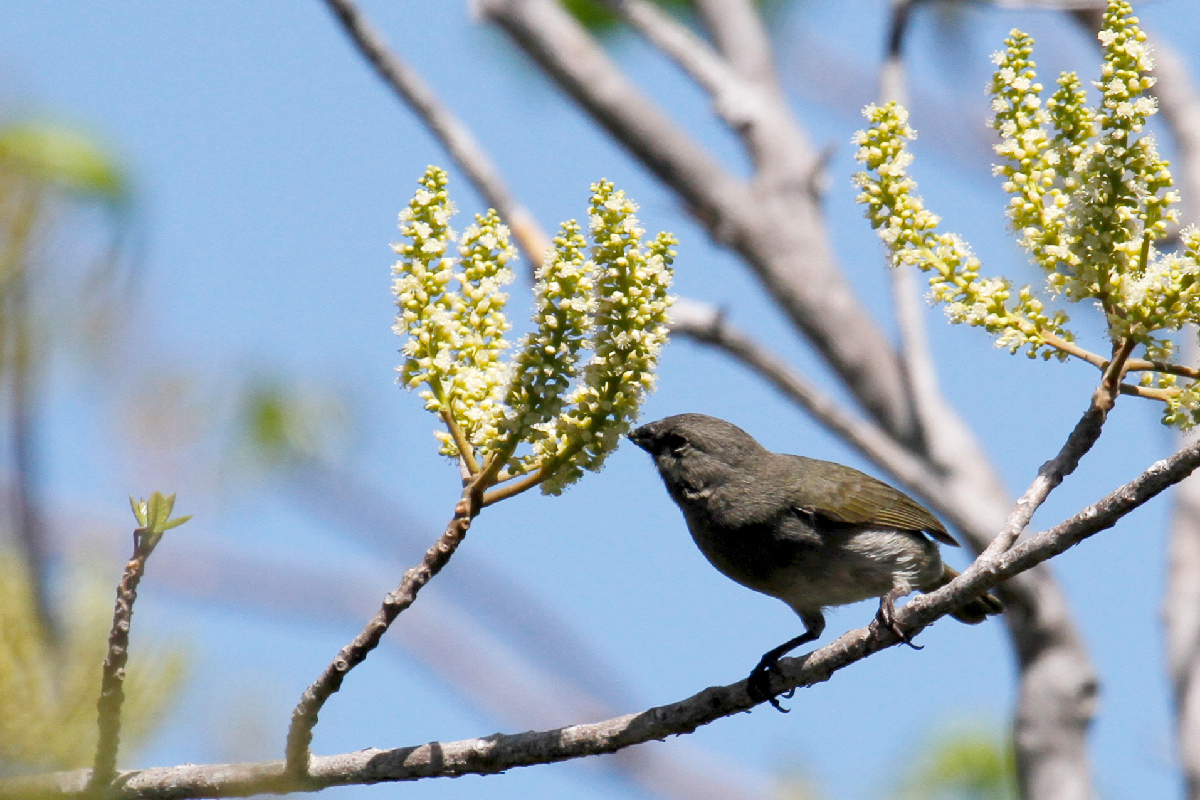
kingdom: Animalia
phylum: Chordata
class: Aves
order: Passeriformes
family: Thraupidae
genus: Melanospiza
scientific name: Melanospiza bicolor
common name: Black-faced grassquit
